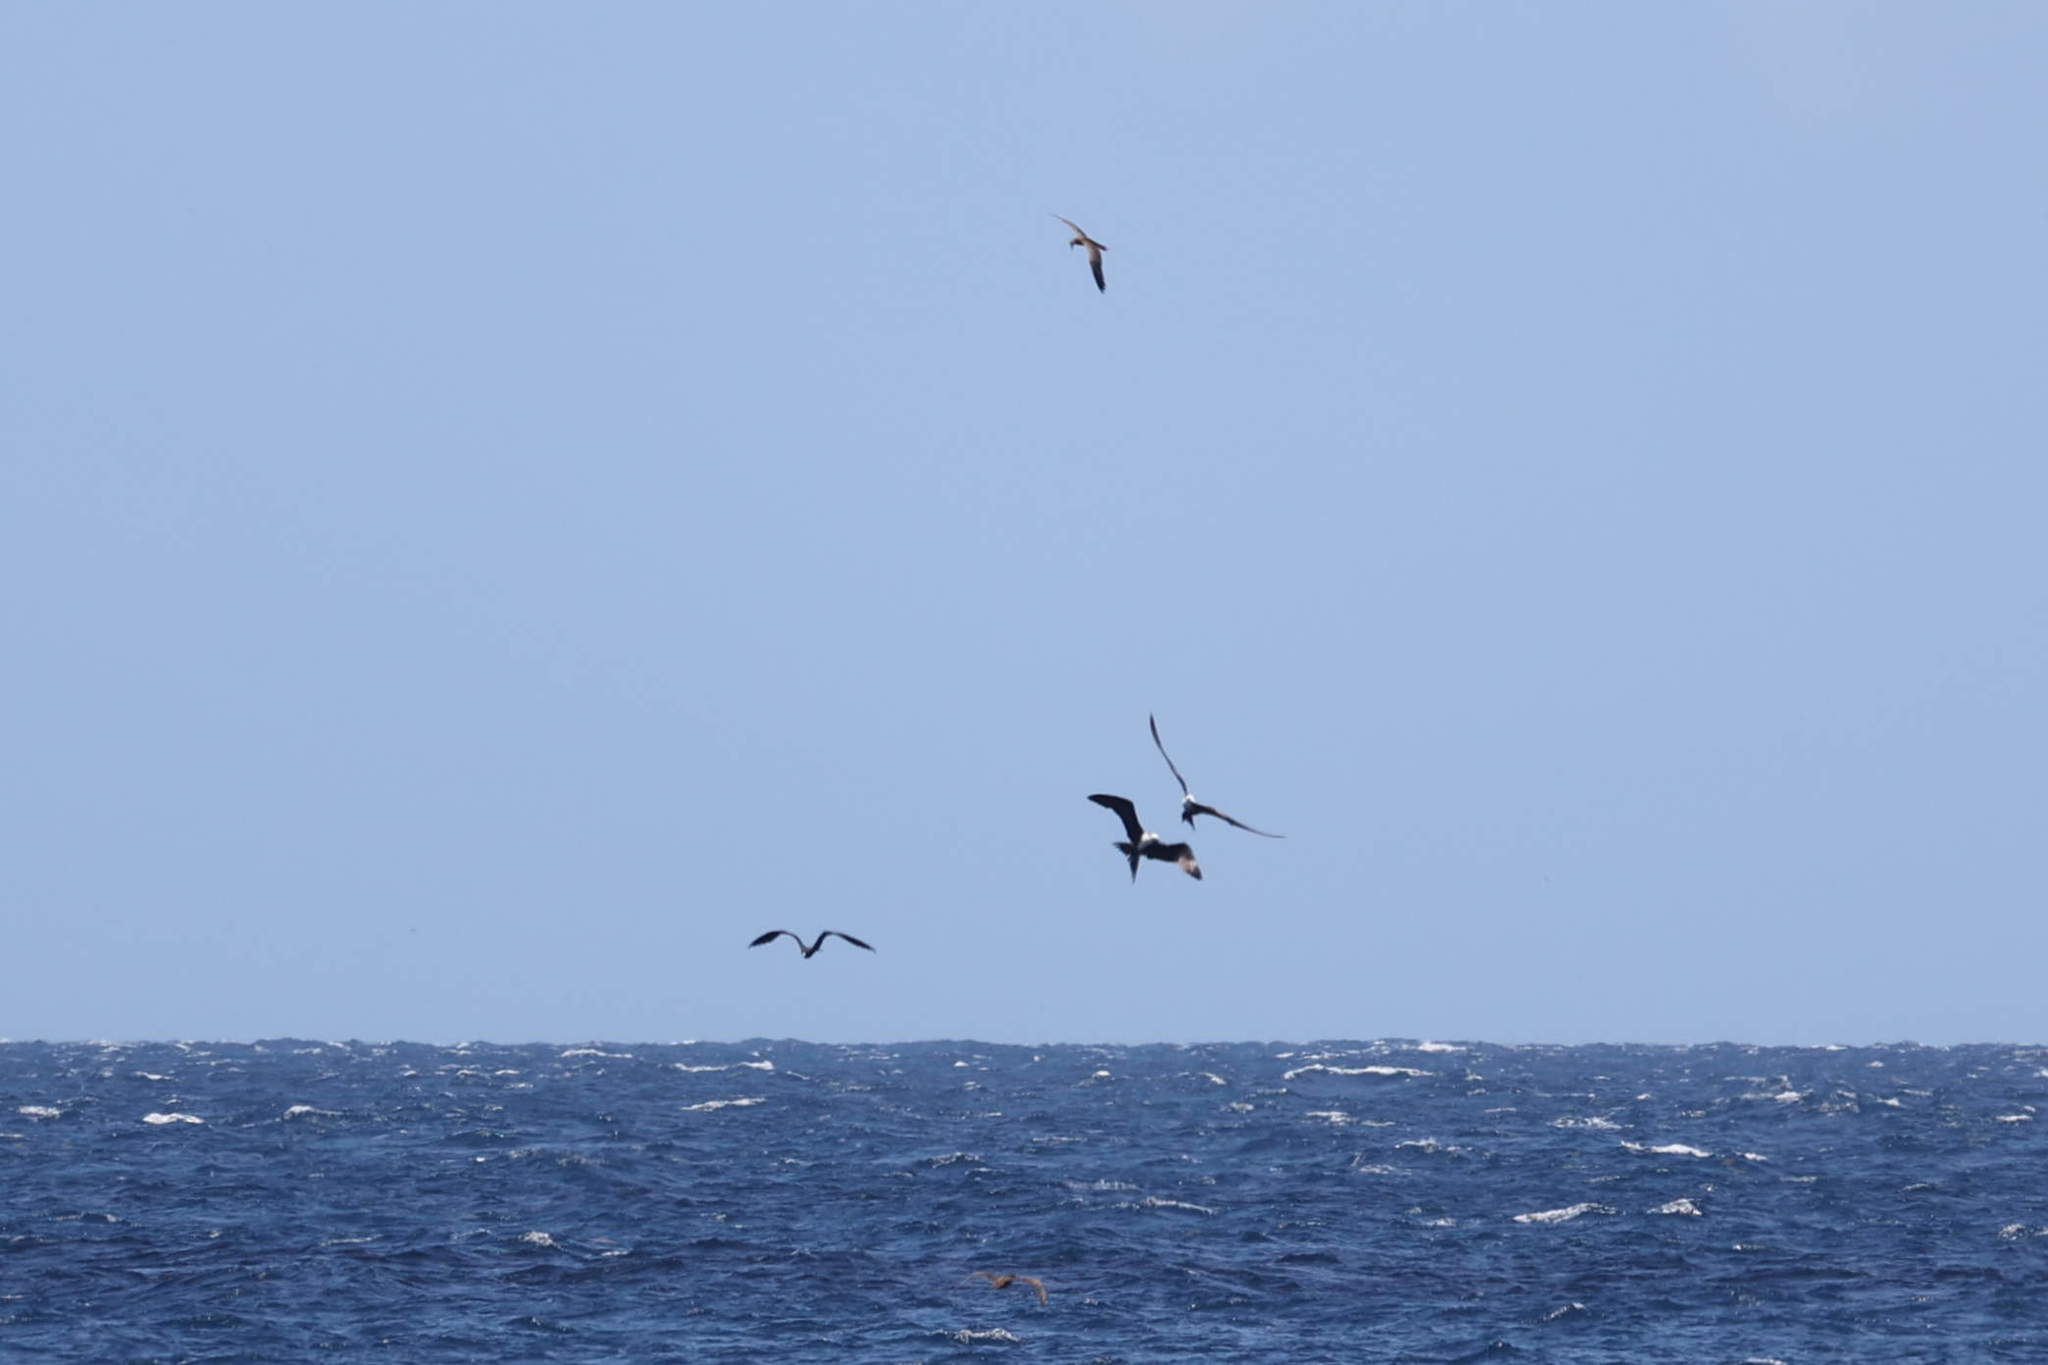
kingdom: Animalia
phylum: Chordata
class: Aves
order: Suliformes
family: Fregatidae
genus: Fregata
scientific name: Fregata magnificens
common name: Magnificent frigatebird
